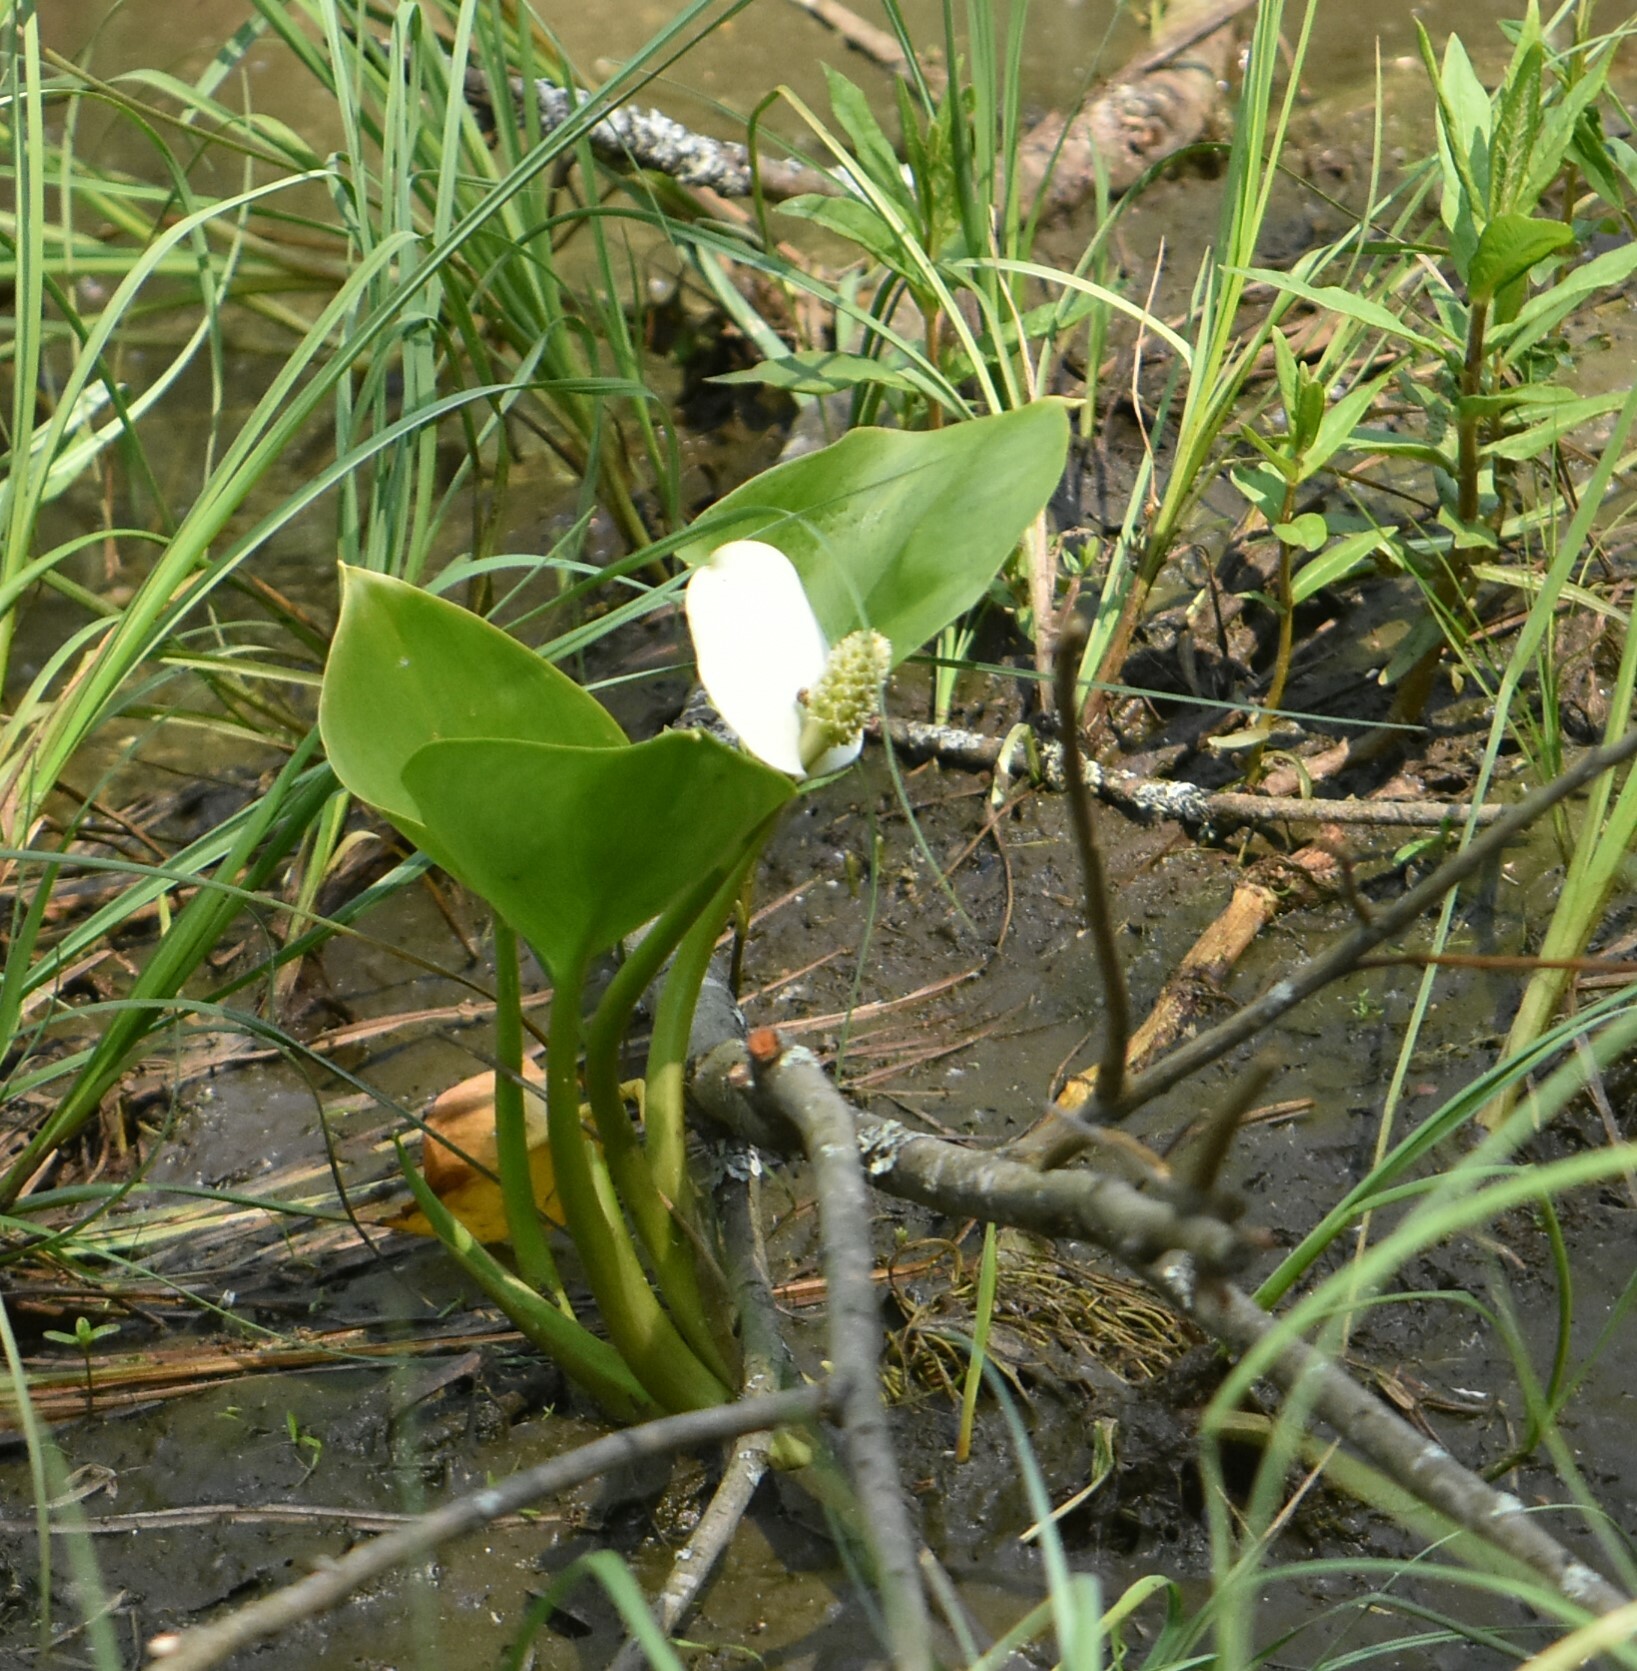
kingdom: Plantae
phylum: Tracheophyta
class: Liliopsida
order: Alismatales
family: Araceae
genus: Calla
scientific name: Calla palustris
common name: Bog arum
